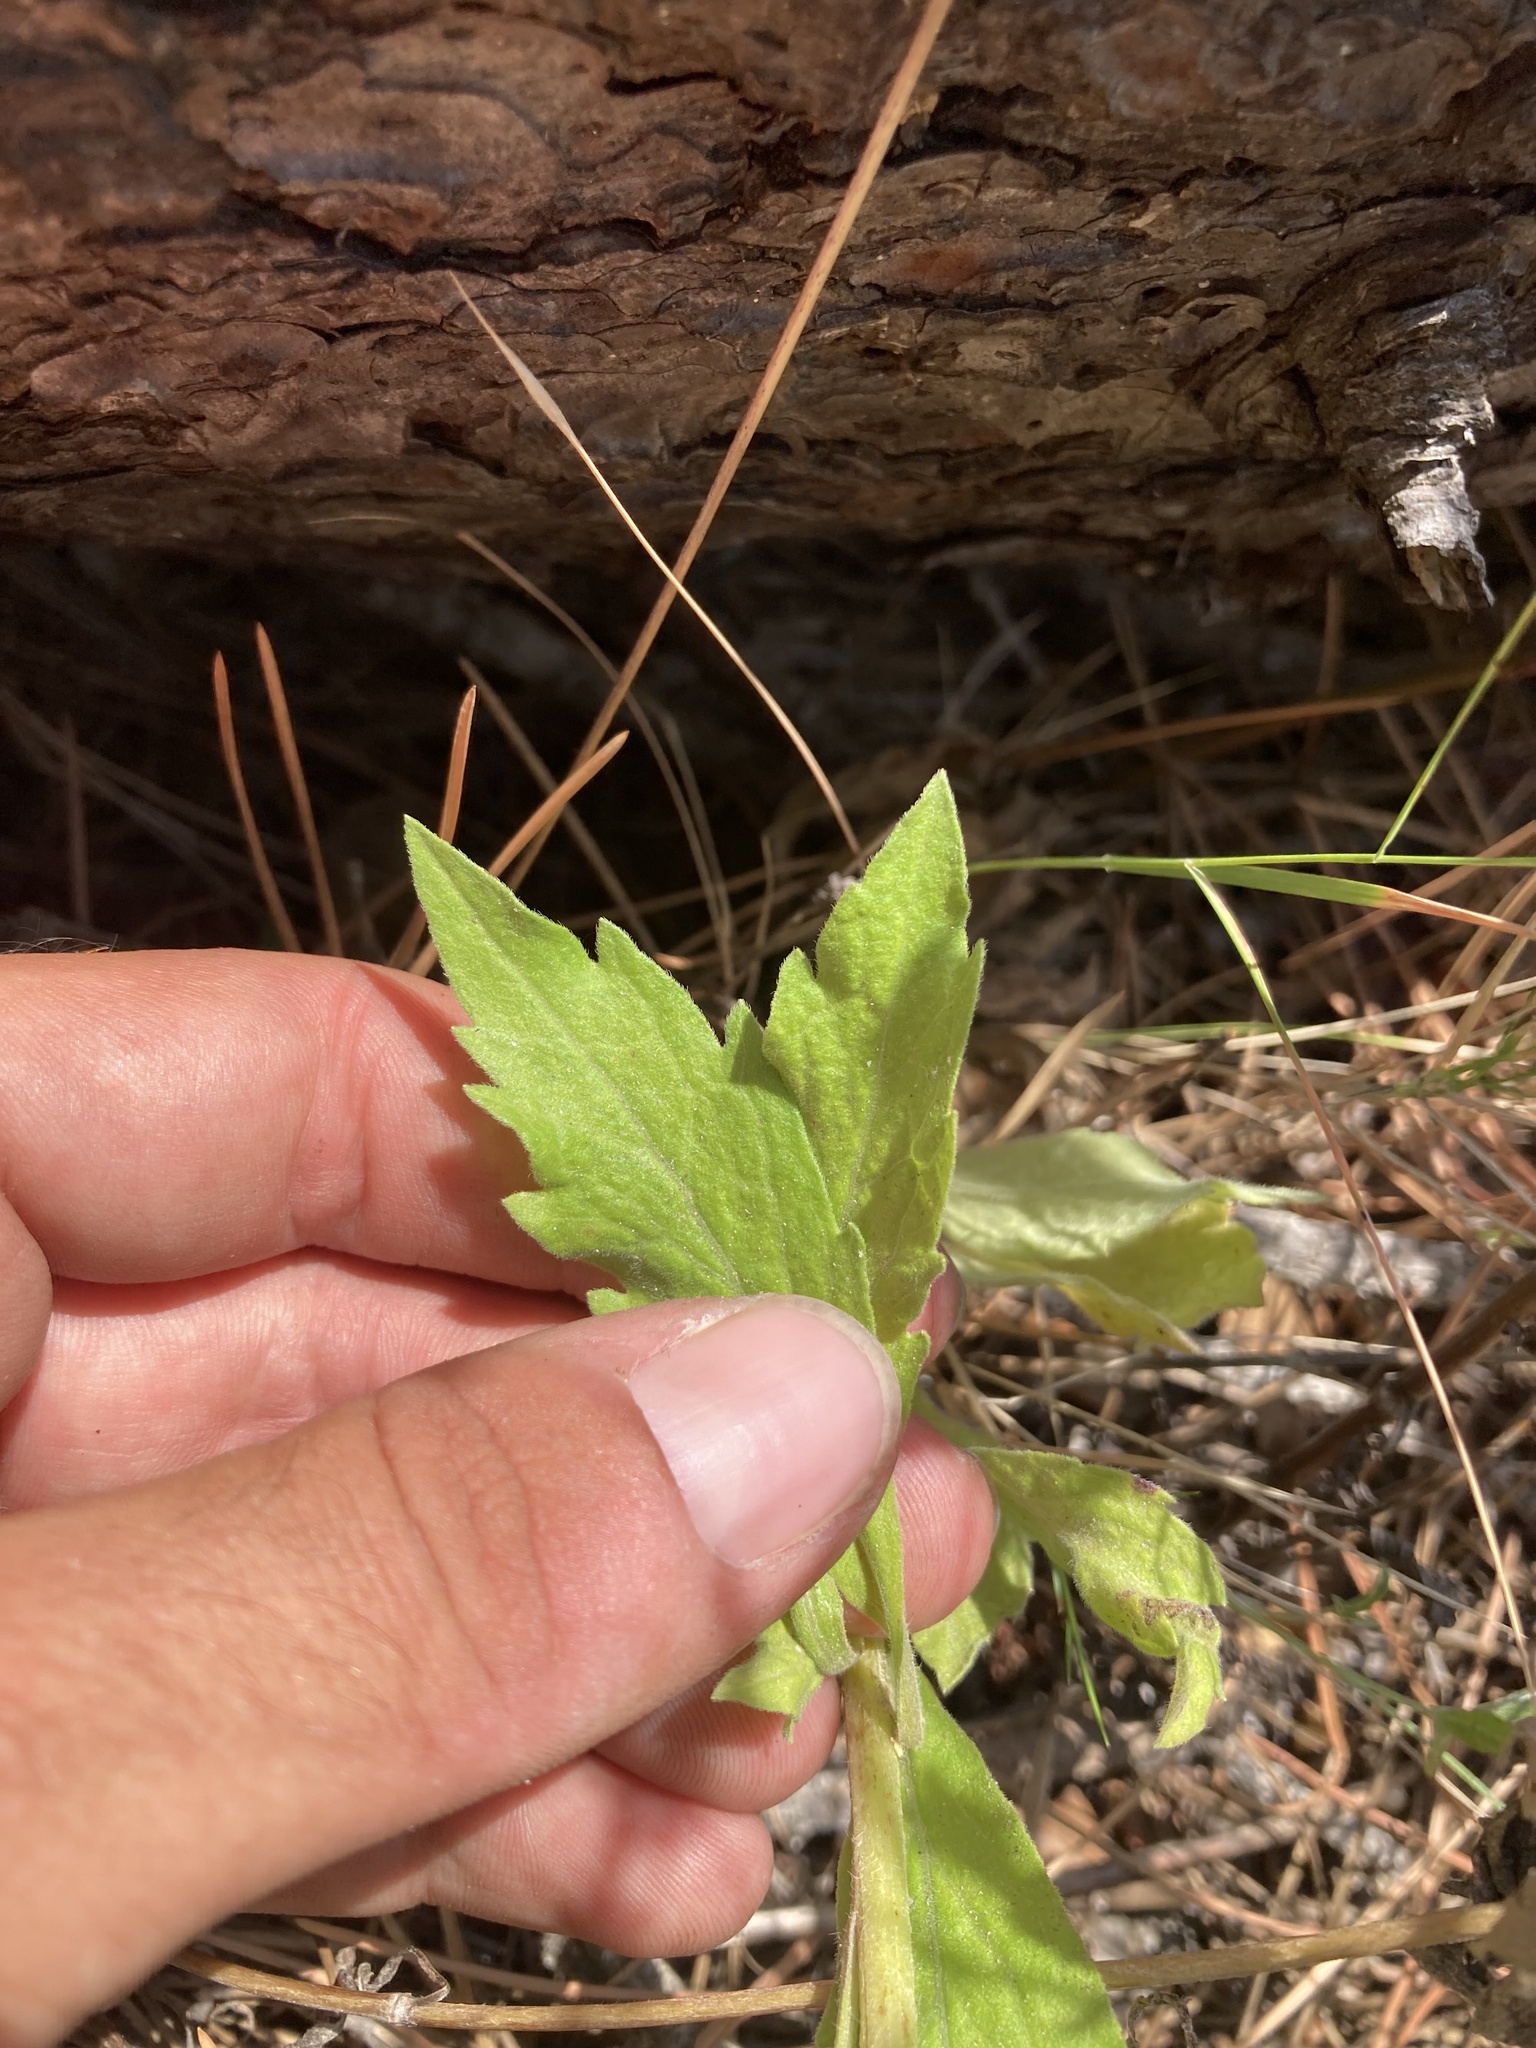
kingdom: Plantae
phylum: Tracheophyta
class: Magnoliopsida
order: Asterales
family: Asteraceae
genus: Erigeron
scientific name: Erigeron sumatrensis
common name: Daisy
